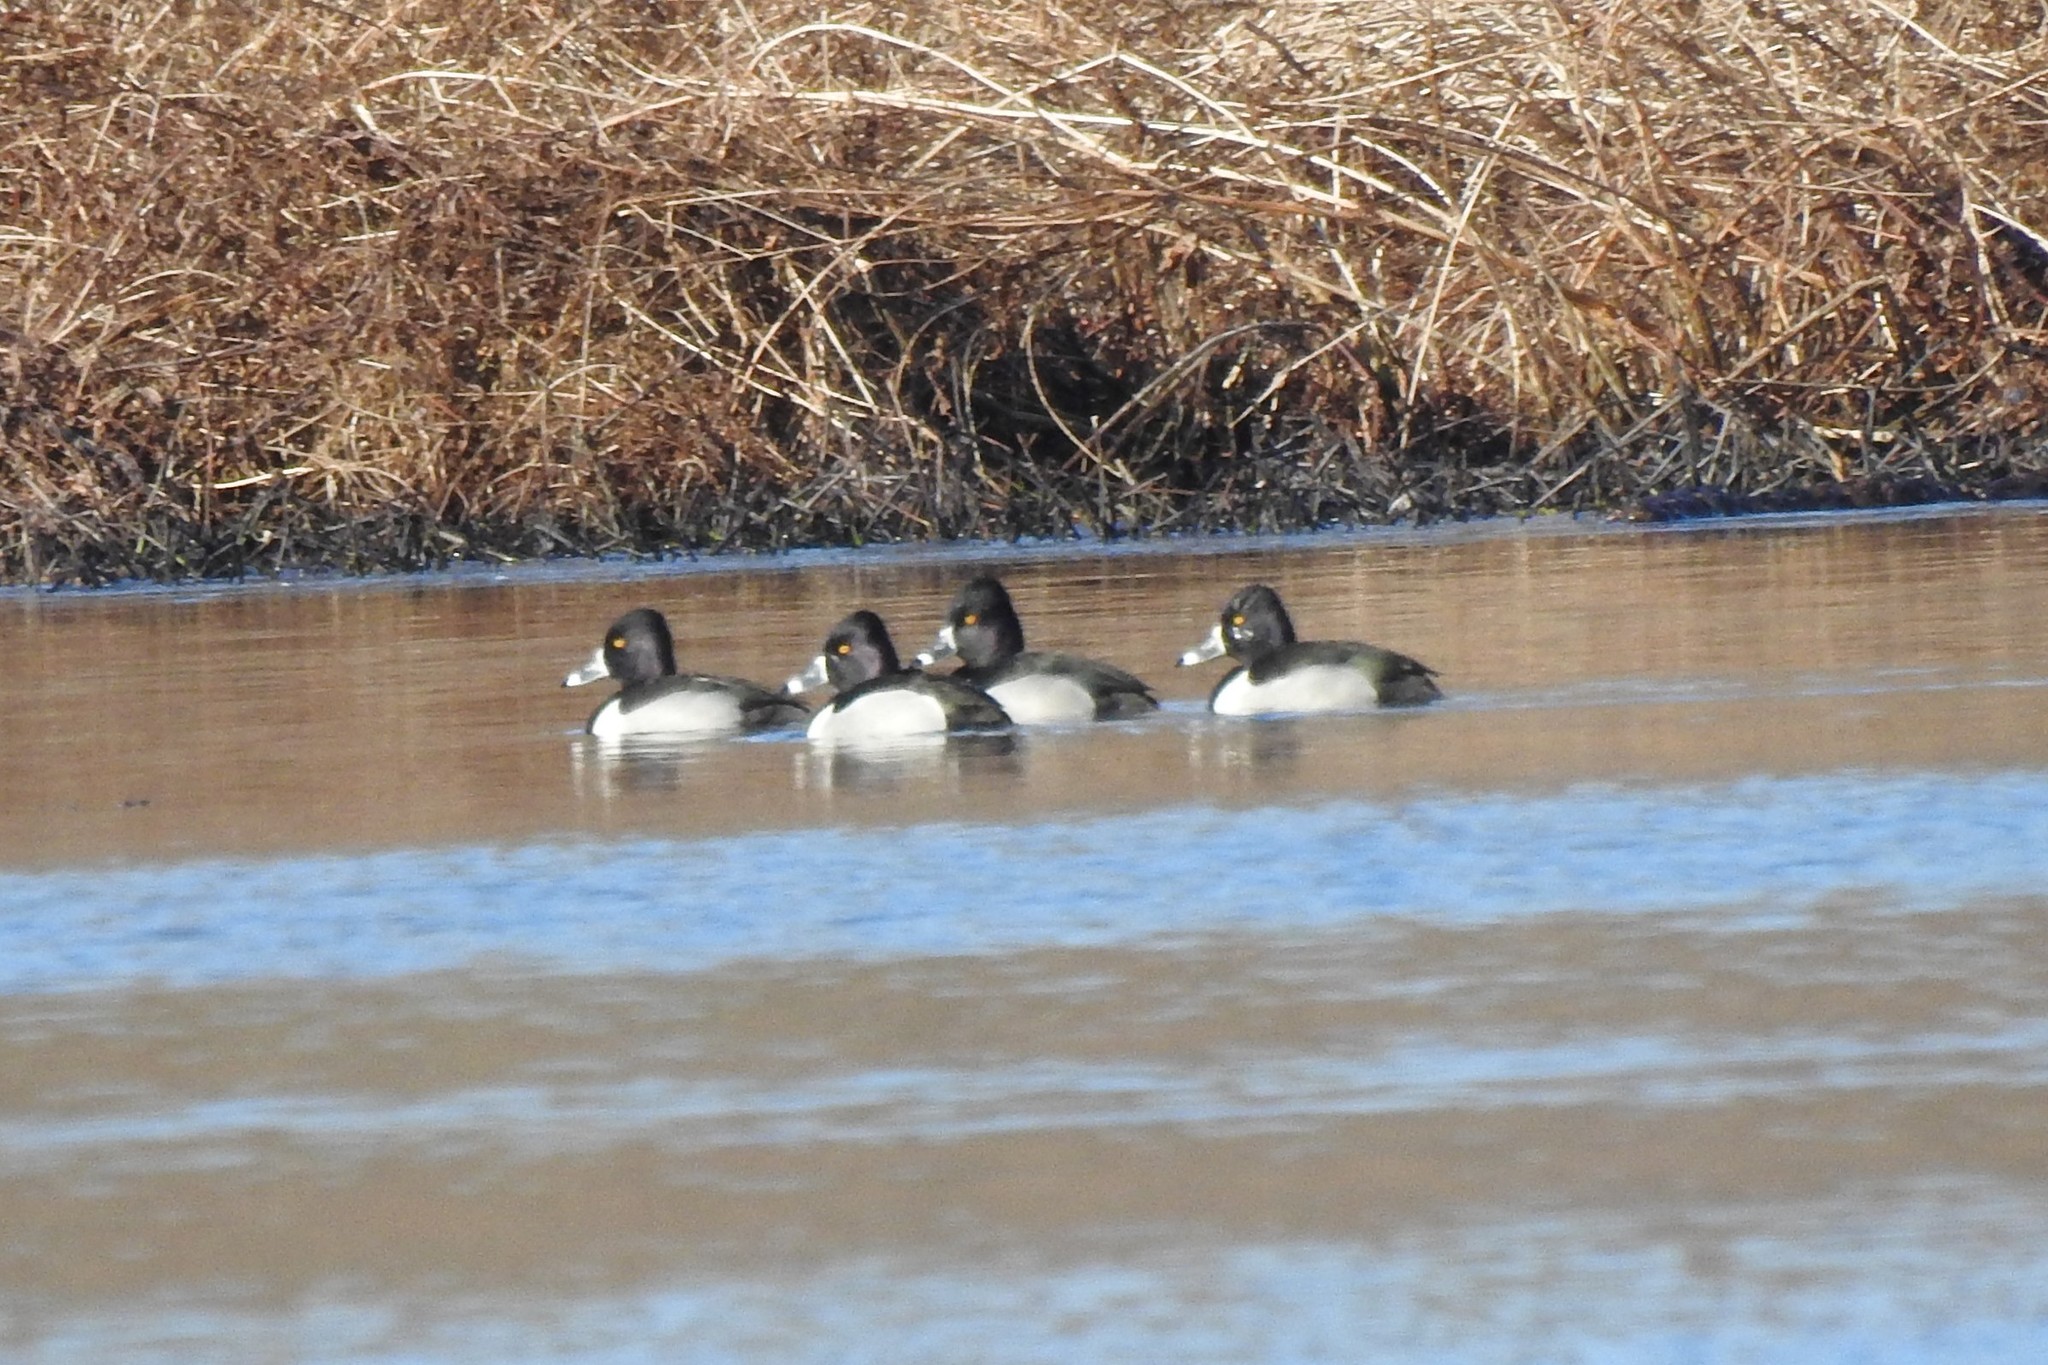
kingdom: Animalia
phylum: Chordata
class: Aves
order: Anseriformes
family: Anatidae
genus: Aythya
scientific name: Aythya collaris
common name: Ring-necked duck
